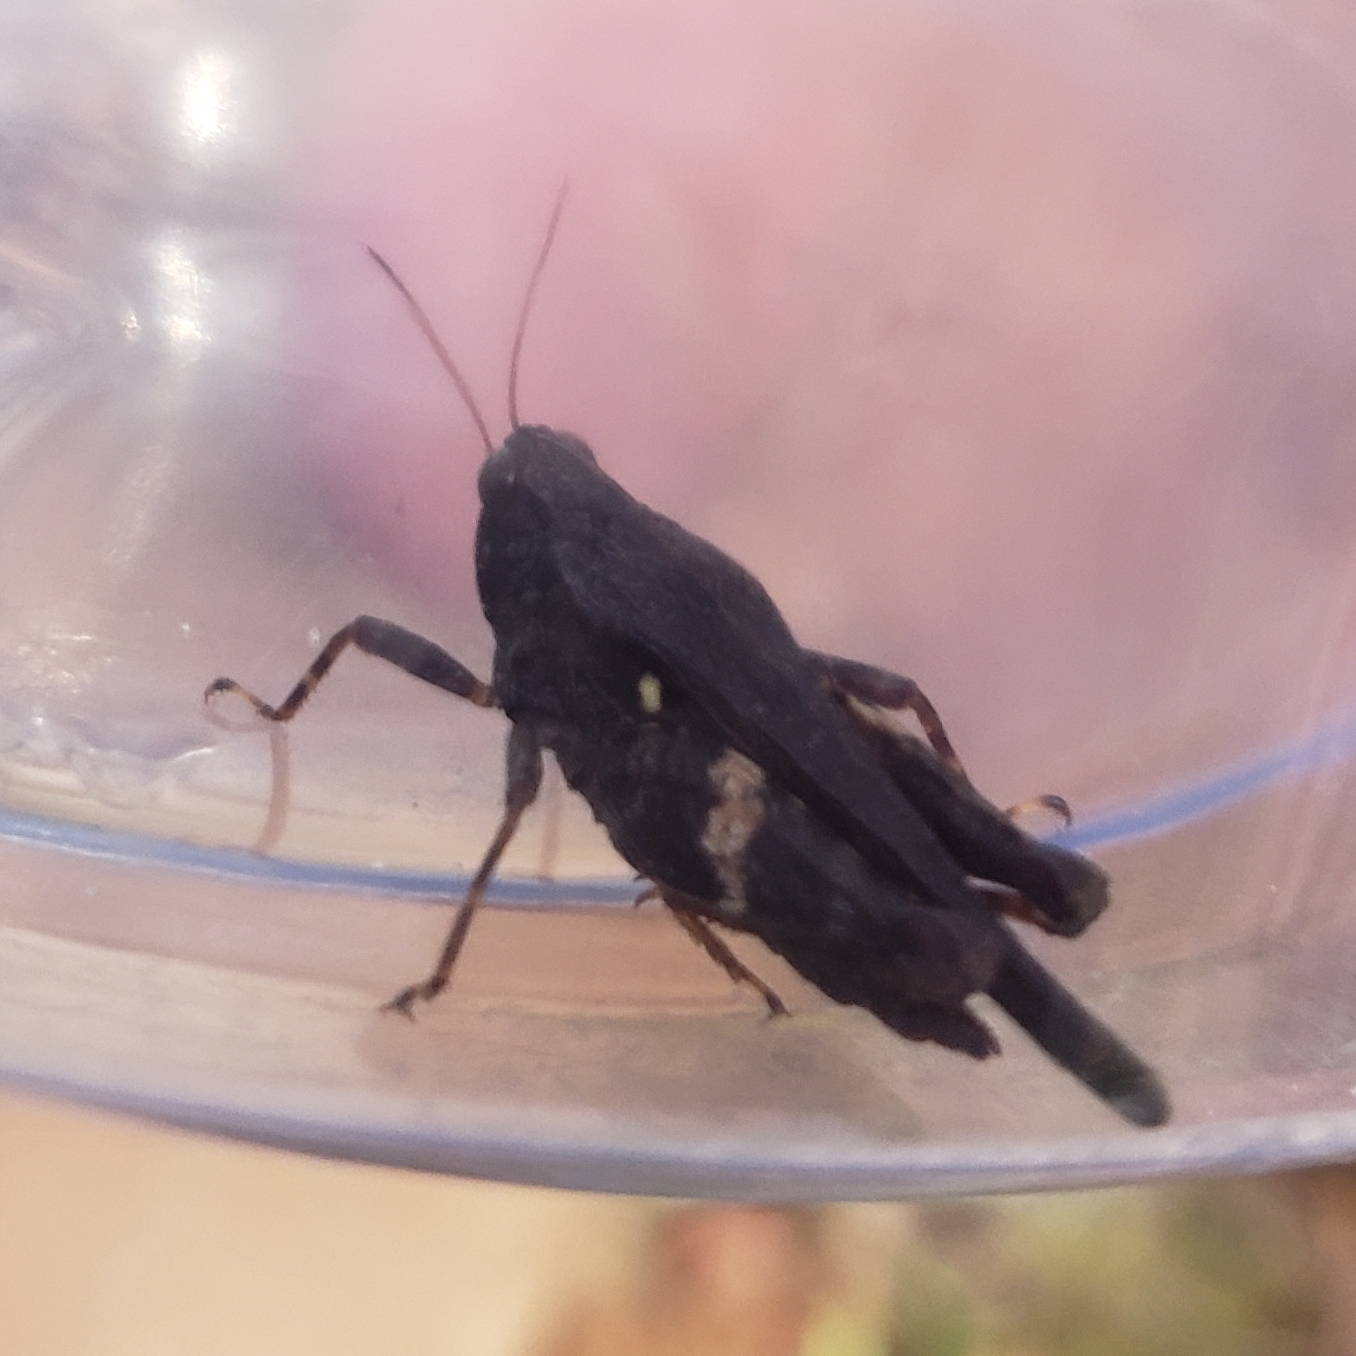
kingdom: Animalia
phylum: Arthropoda
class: Insecta
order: Orthoptera
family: Tetrigidae
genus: Tettigidea
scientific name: Tettigidea armata
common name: Spined grouse locust
